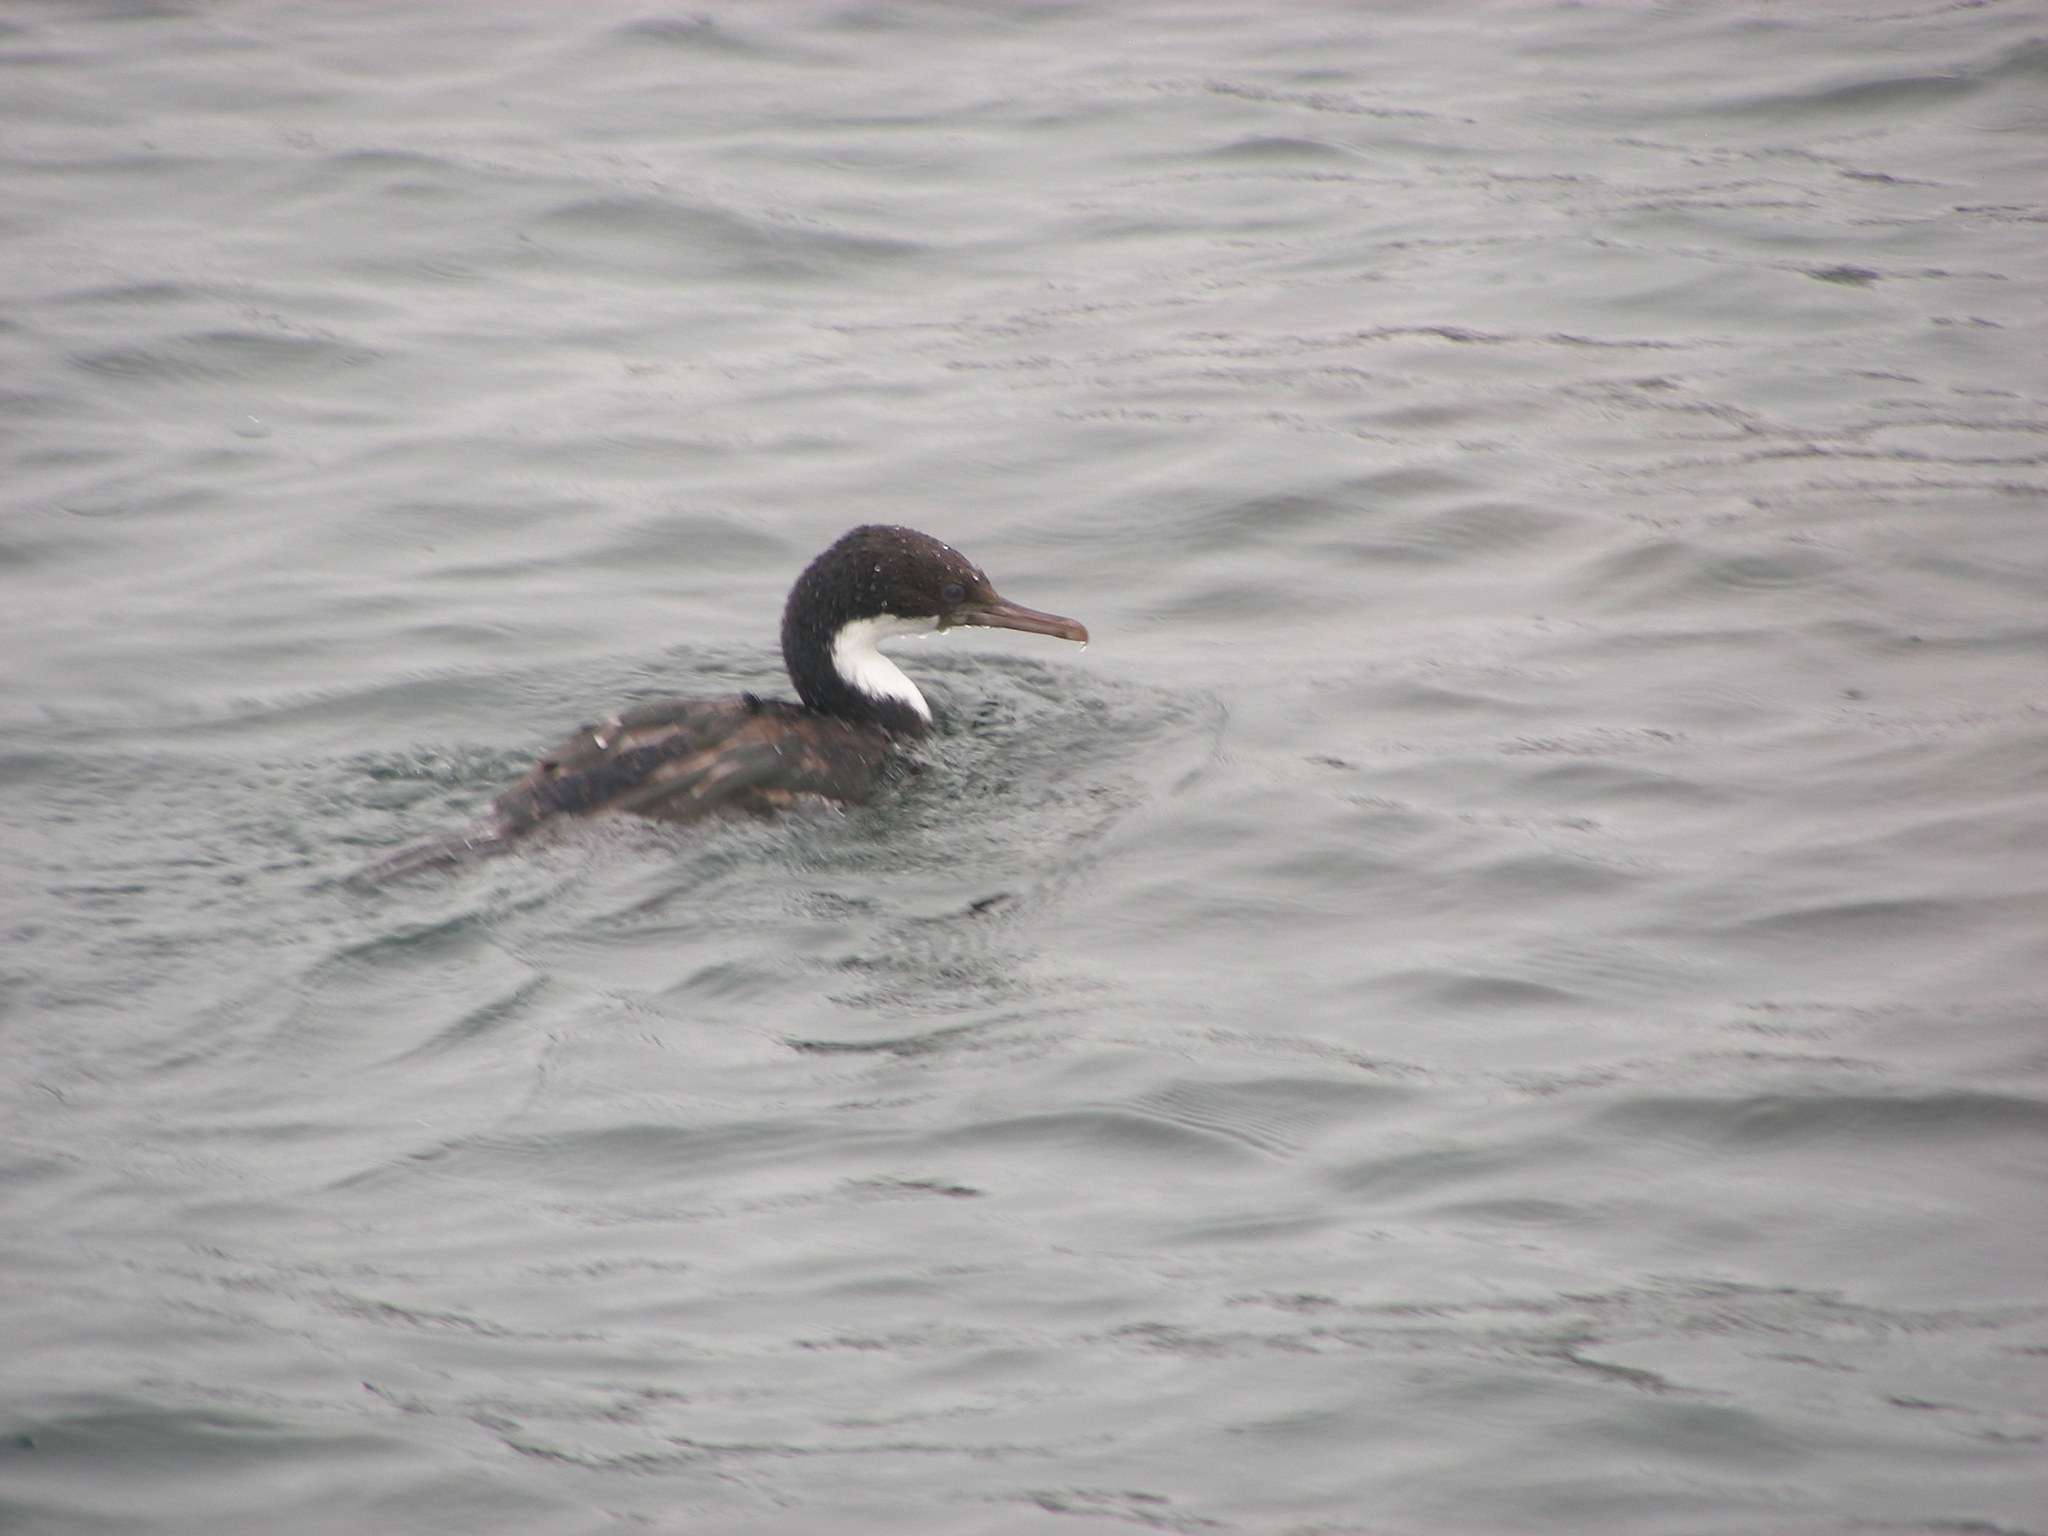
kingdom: Animalia
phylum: Chordata
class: Aves
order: Suliformes
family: Phalacrocoracidae
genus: Leucocarbo
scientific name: Leucocarbo albiventer
